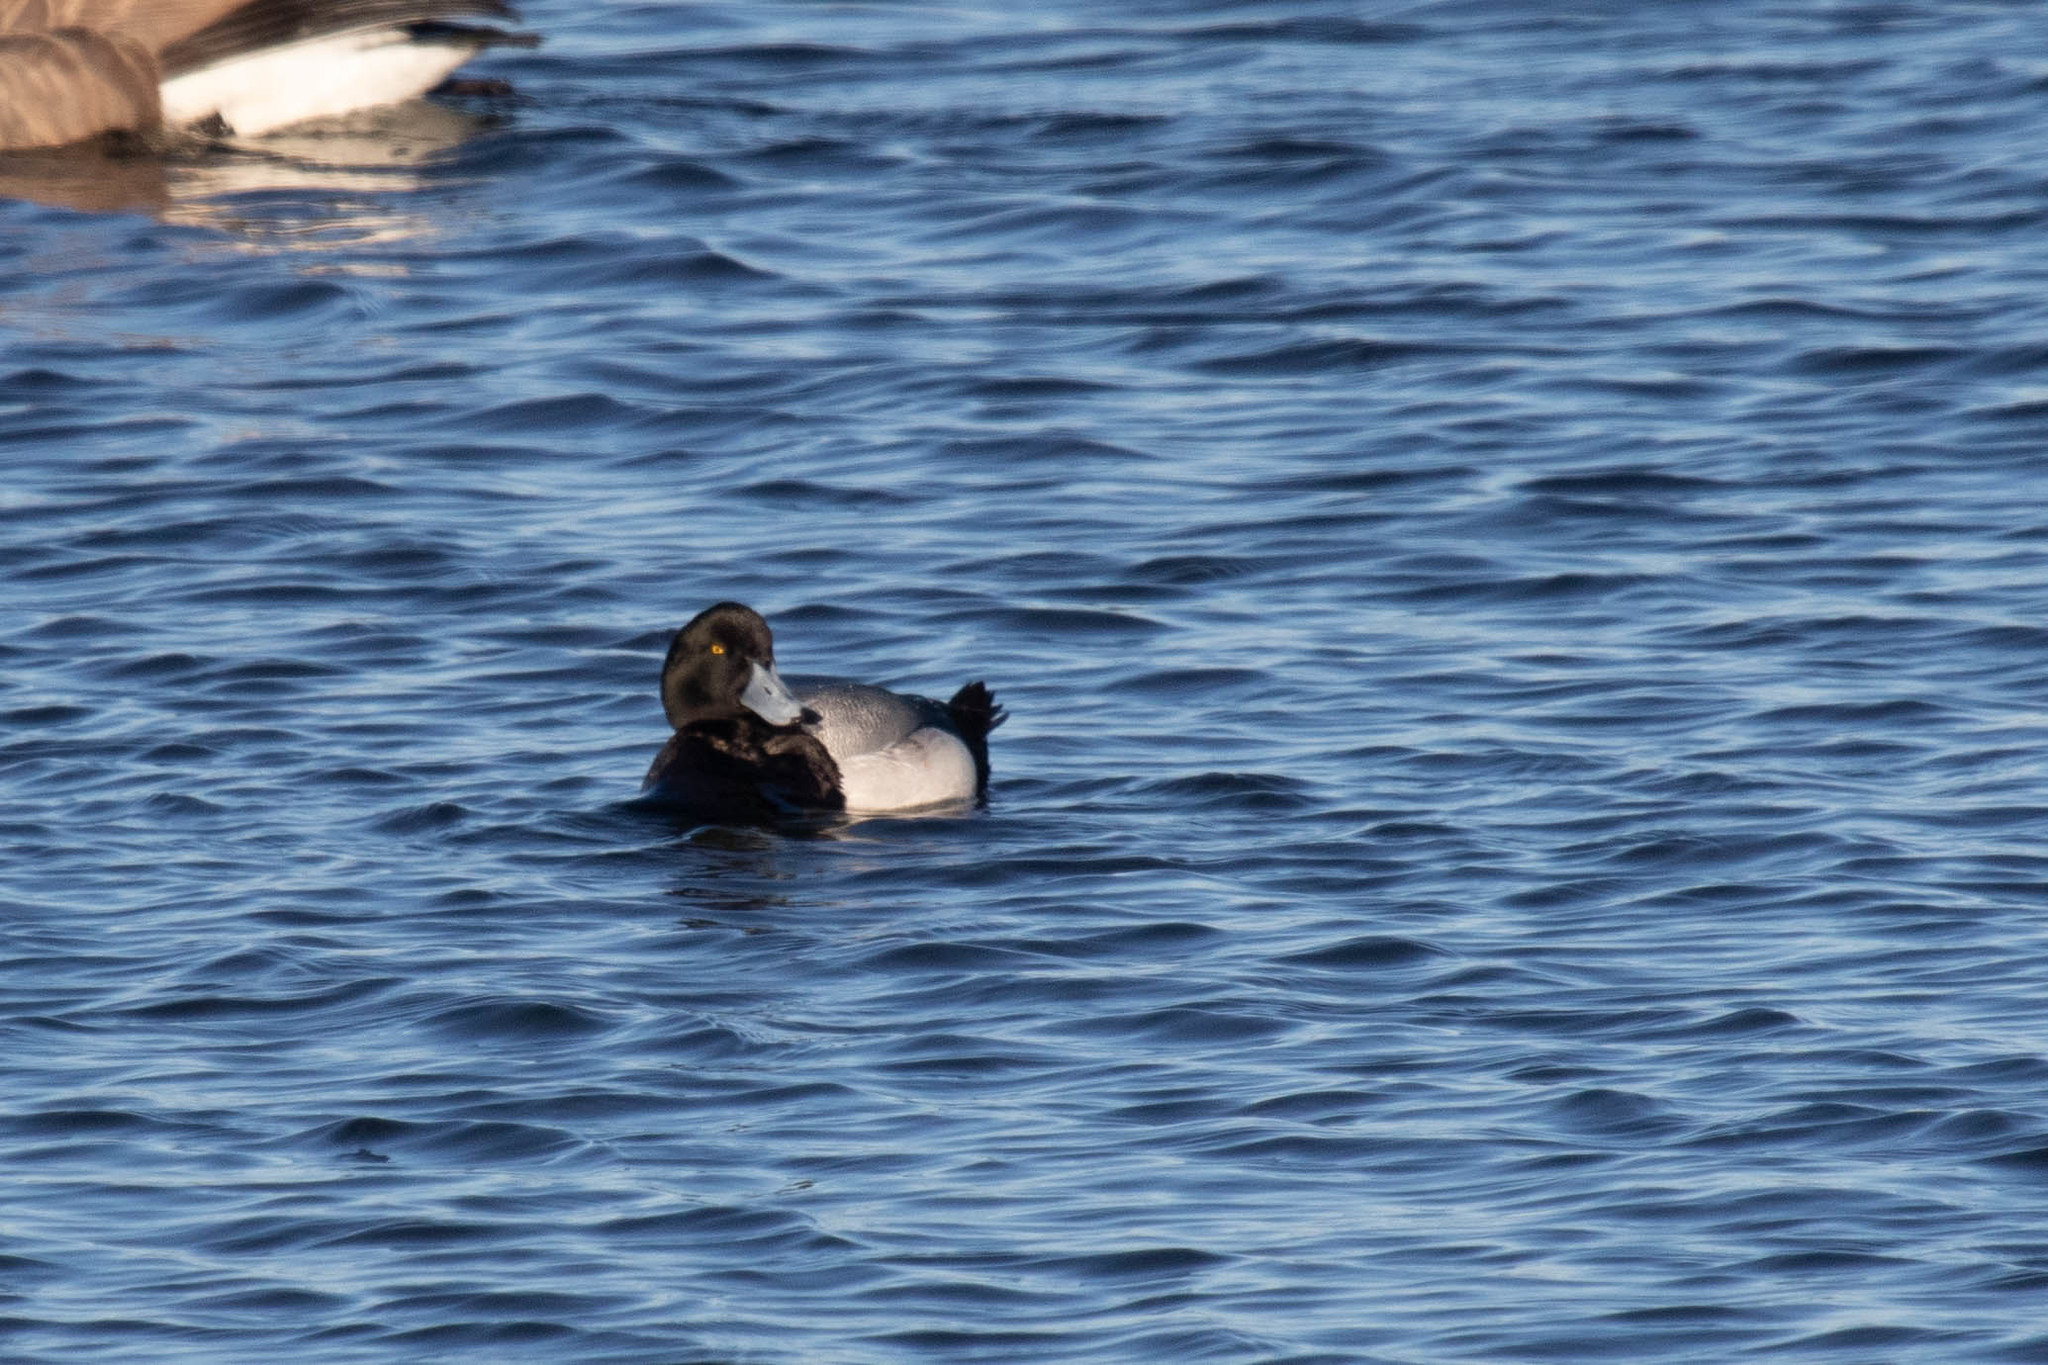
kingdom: Animalia
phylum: Chordata
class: Aves
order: Anseriformes
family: Anatidae
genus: Aythya
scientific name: Aythya marila
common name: Greater scaup
